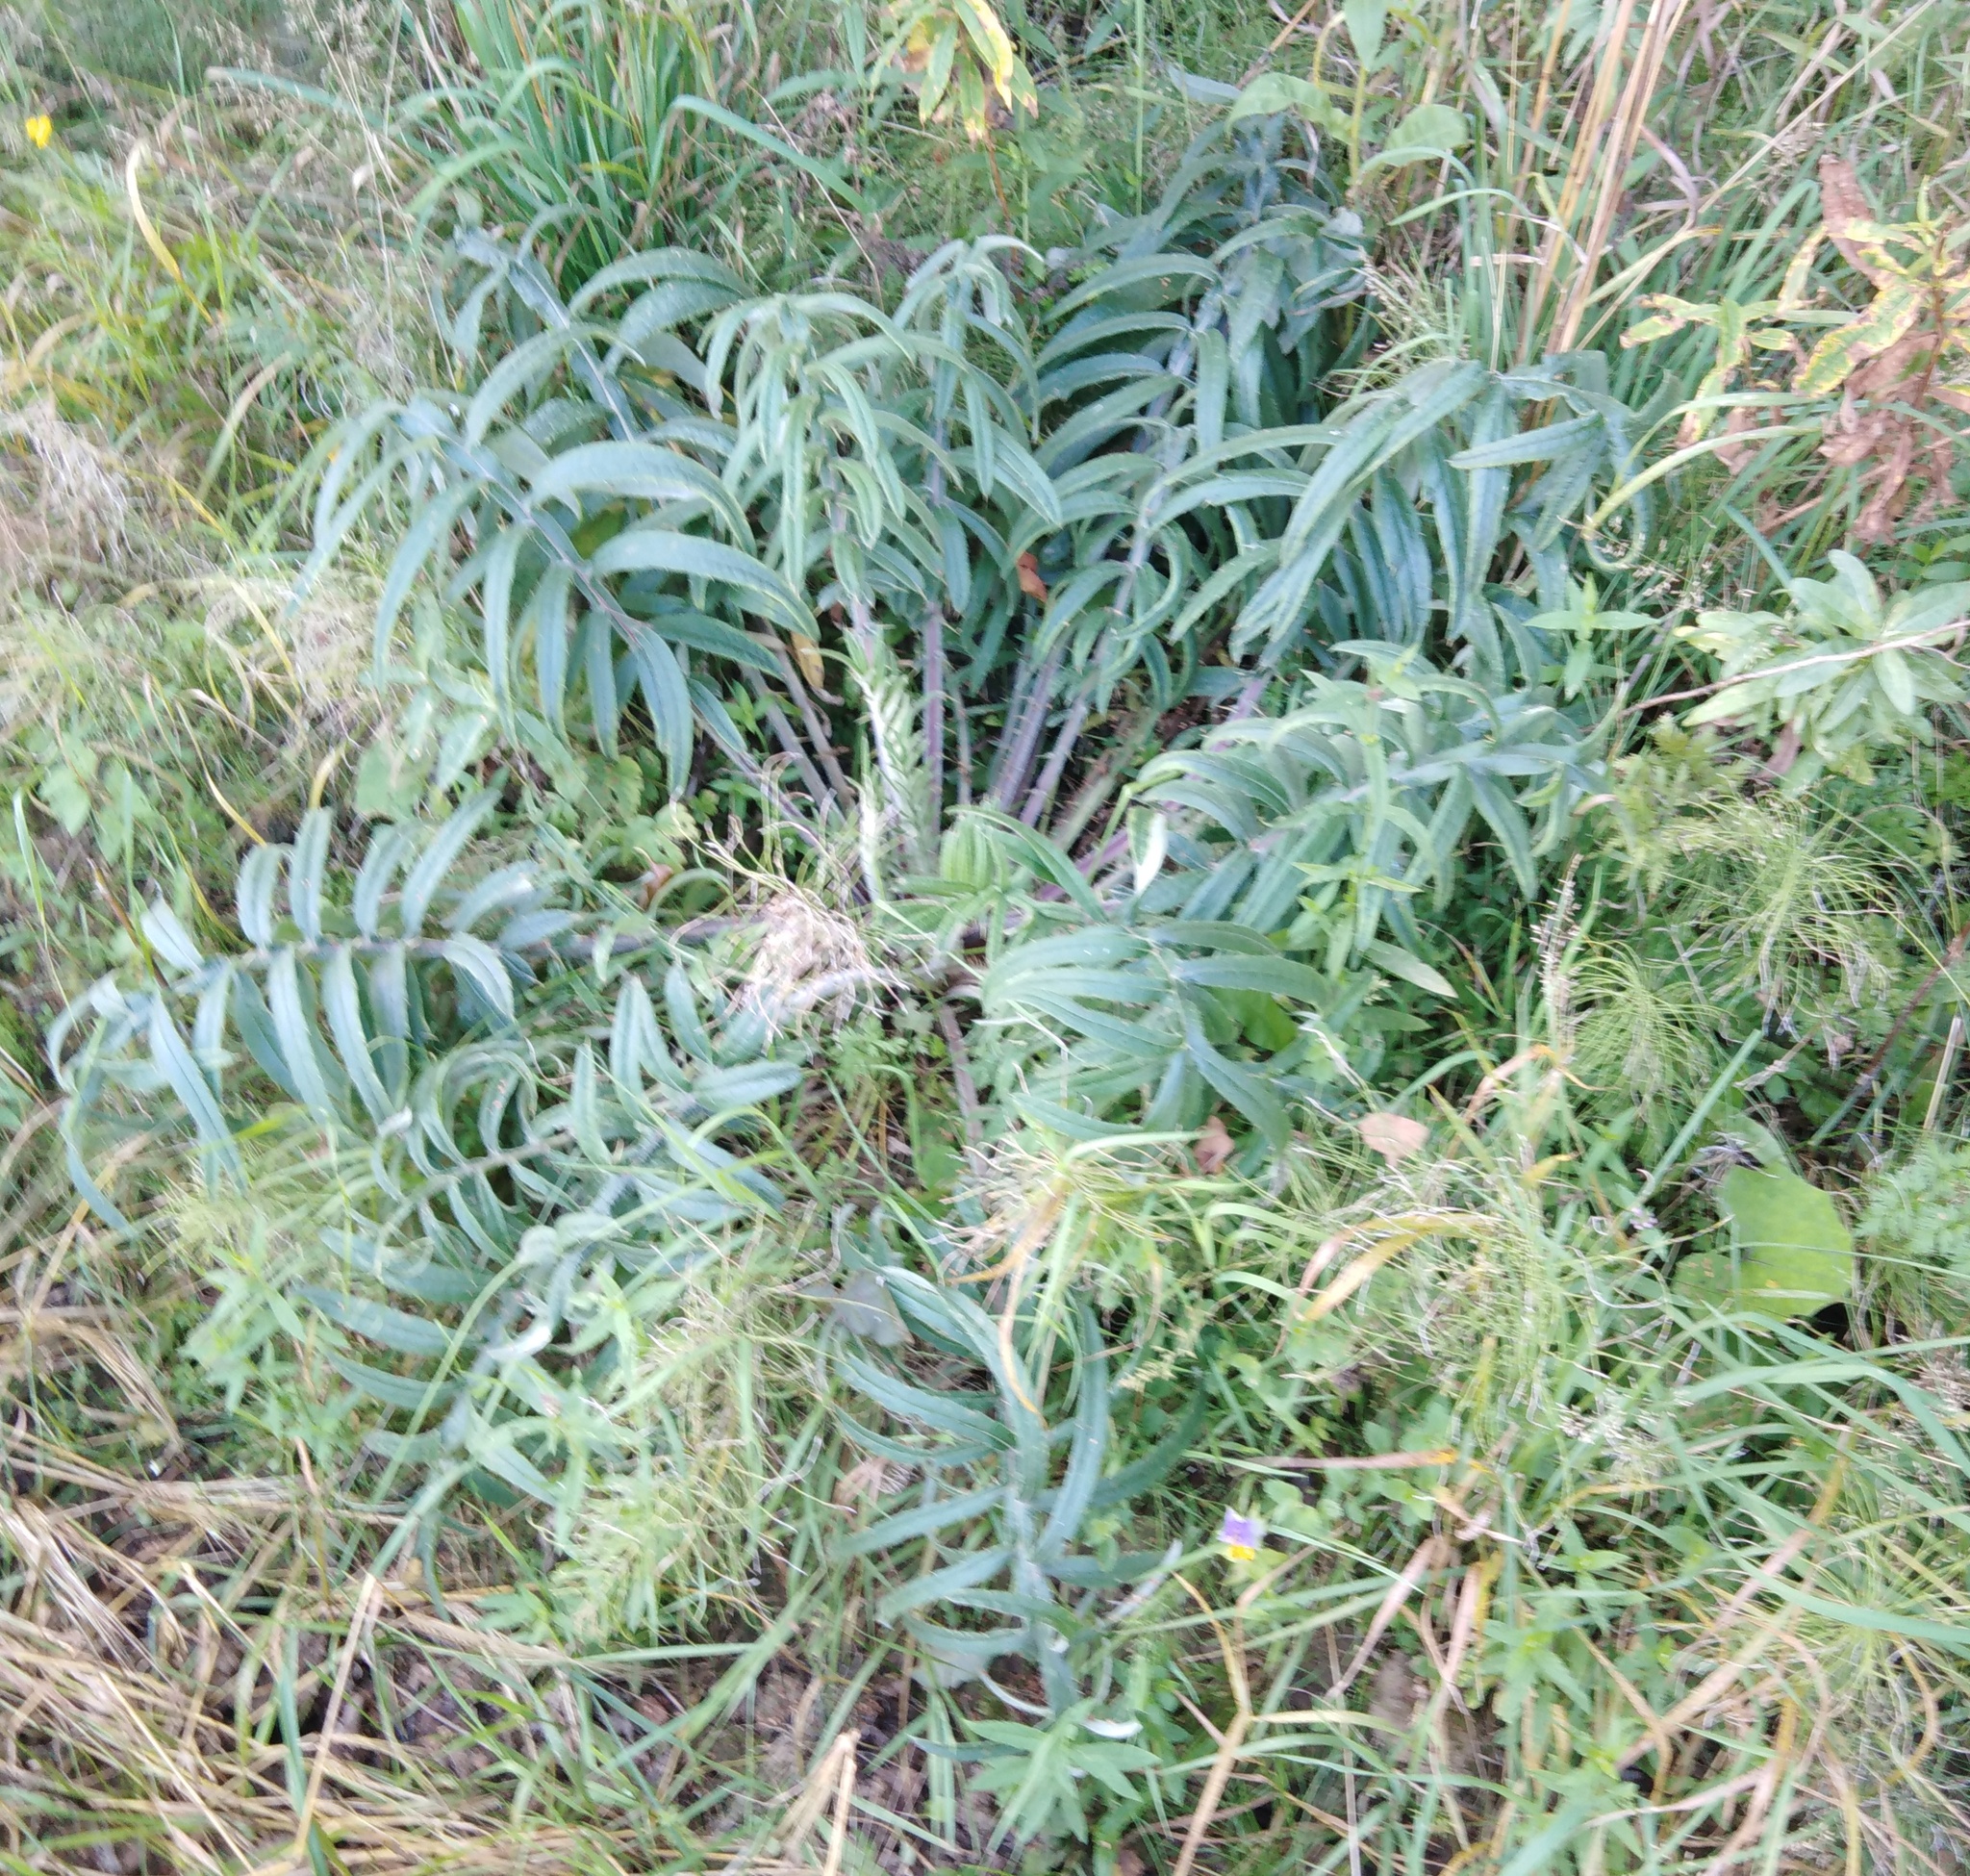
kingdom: Plantae
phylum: Tracheophyta
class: Magnoliopsida
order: Asterales
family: Asteraceae
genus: Lophiolepis
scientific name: Lophiolepis decussata
